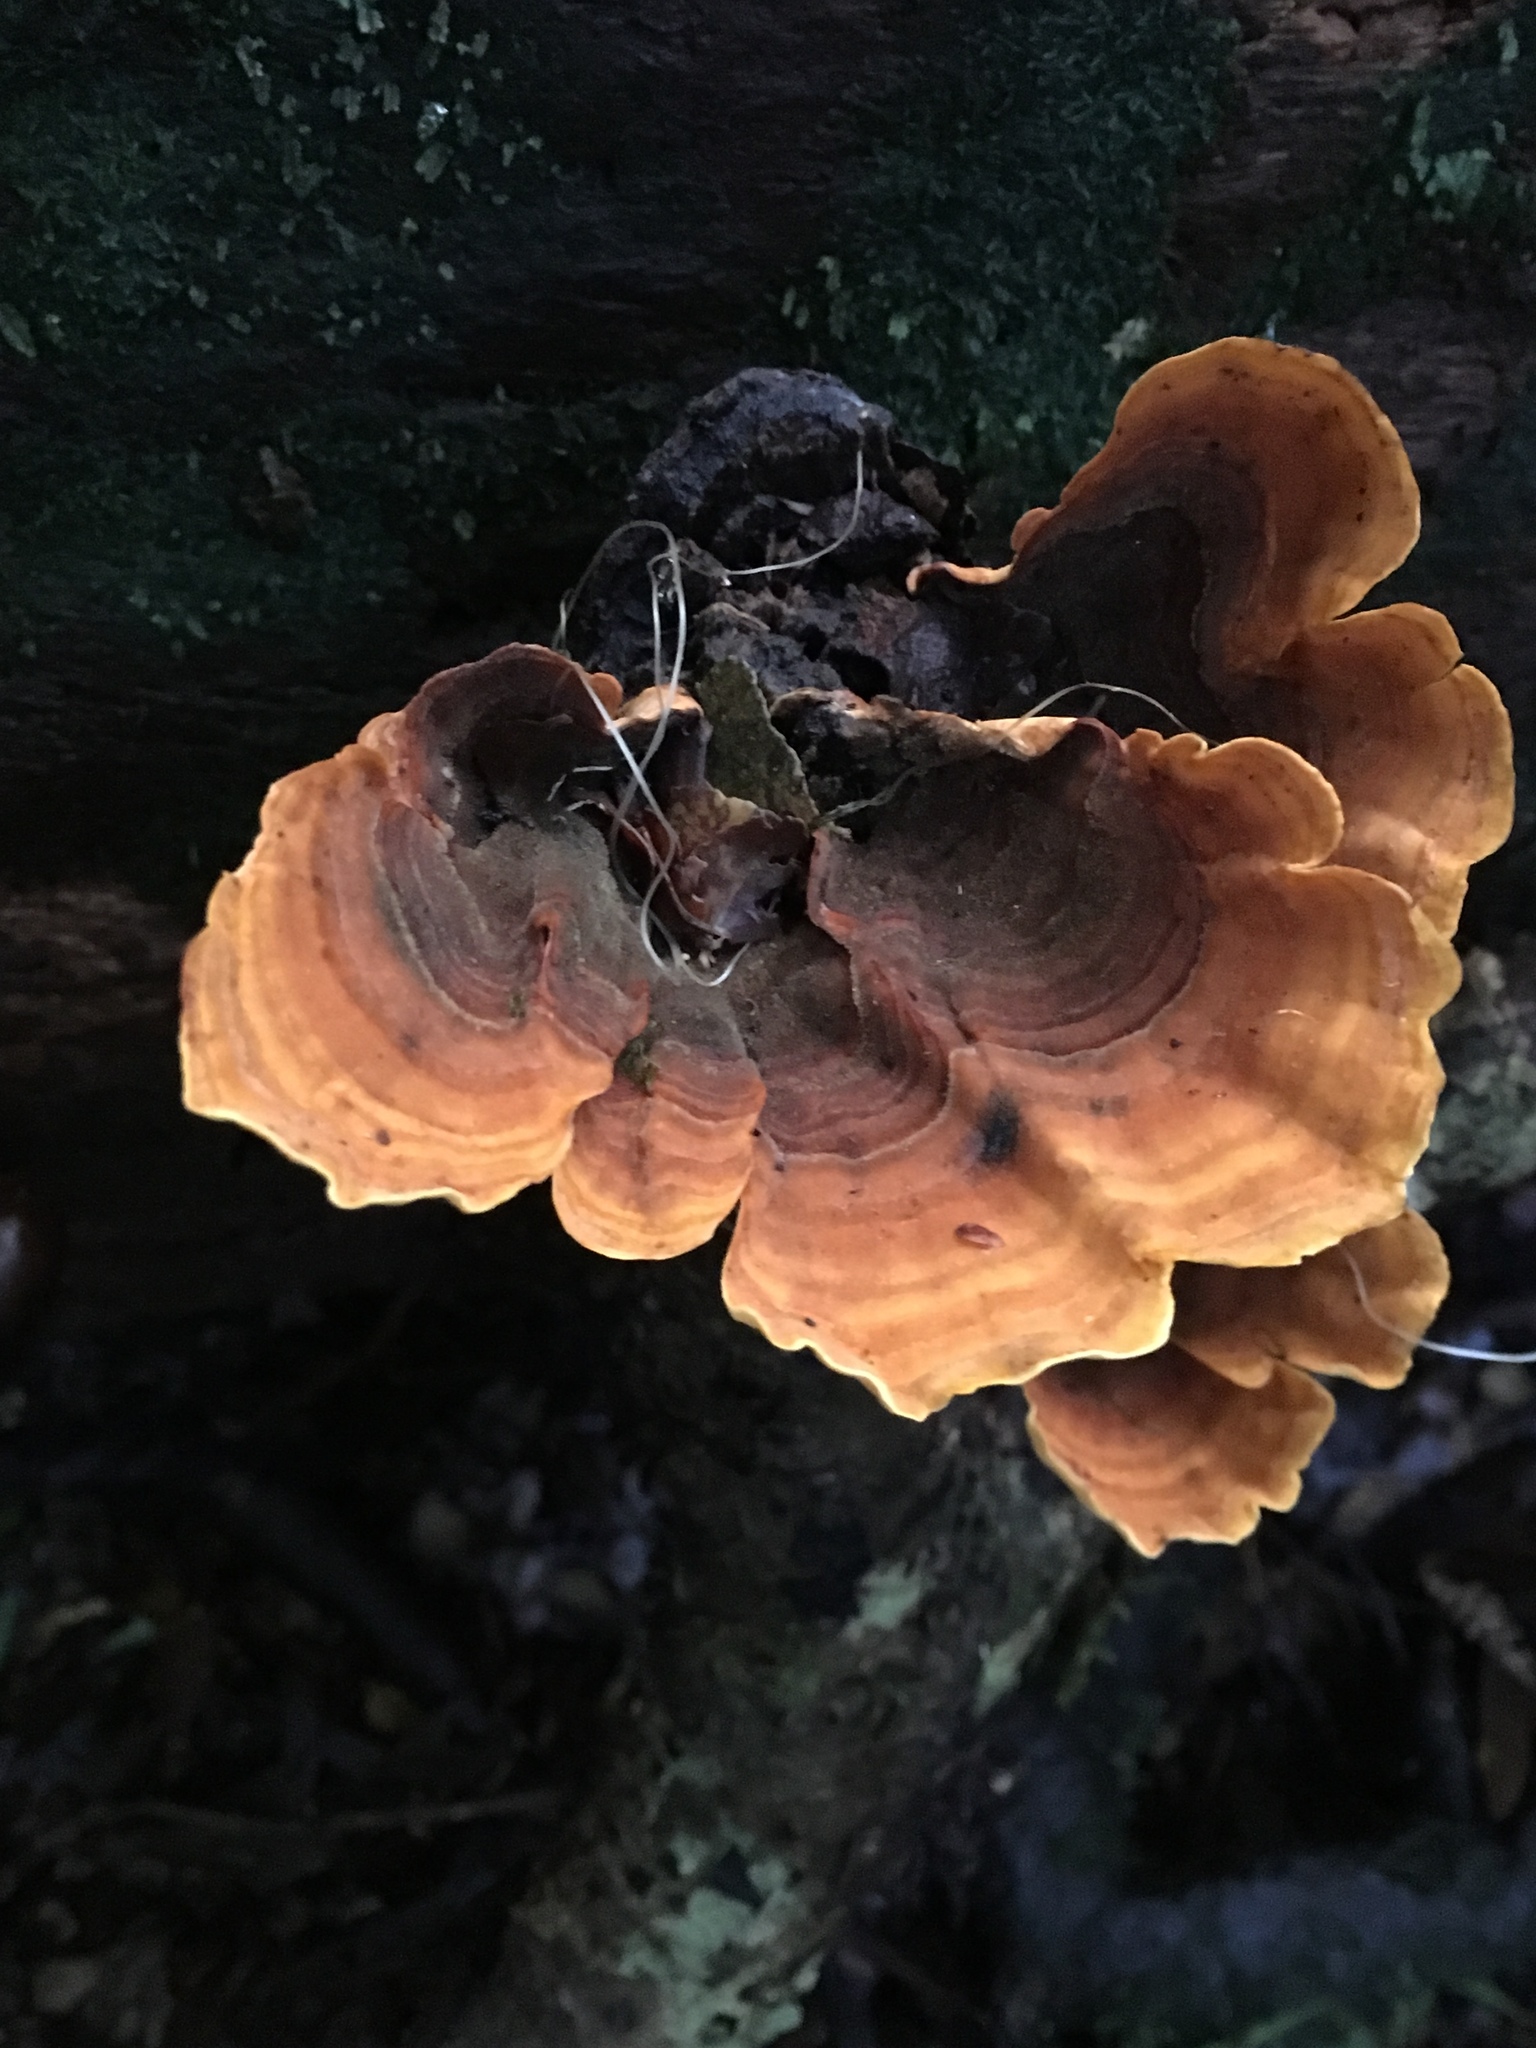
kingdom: Fungi
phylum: Basidiomycota
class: Agaricomycetes
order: Russulales
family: Stereaceae
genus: Stereum
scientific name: Stereum versicolor
